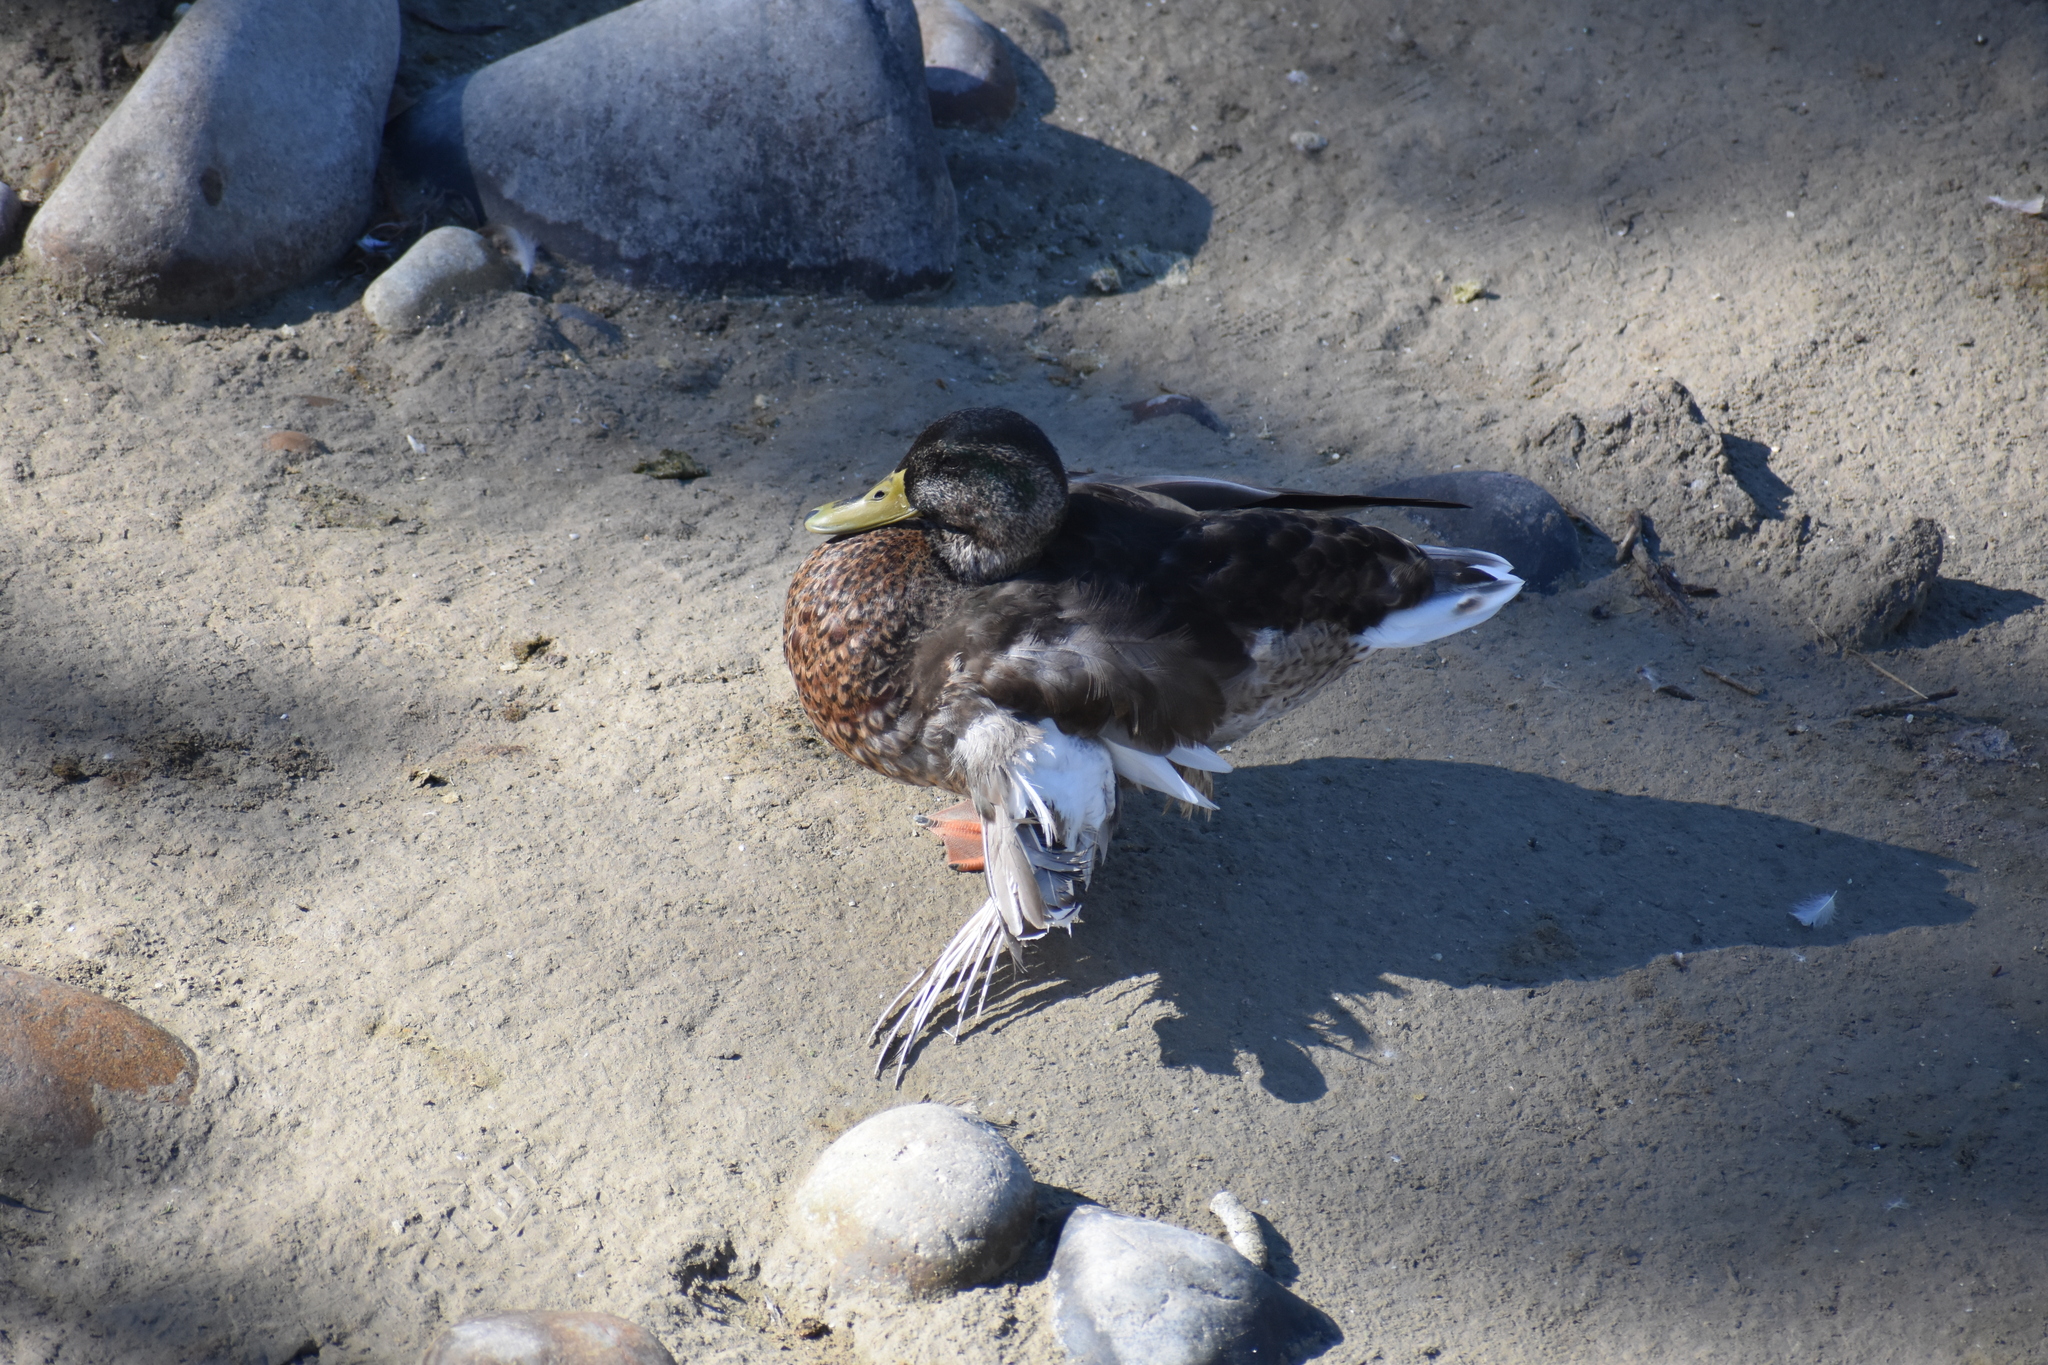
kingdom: Animalia
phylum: Chordata
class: Aves
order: Anseriformes
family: Anatidae
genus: Anas
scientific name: Anas platyrhynchos
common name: Mallard
